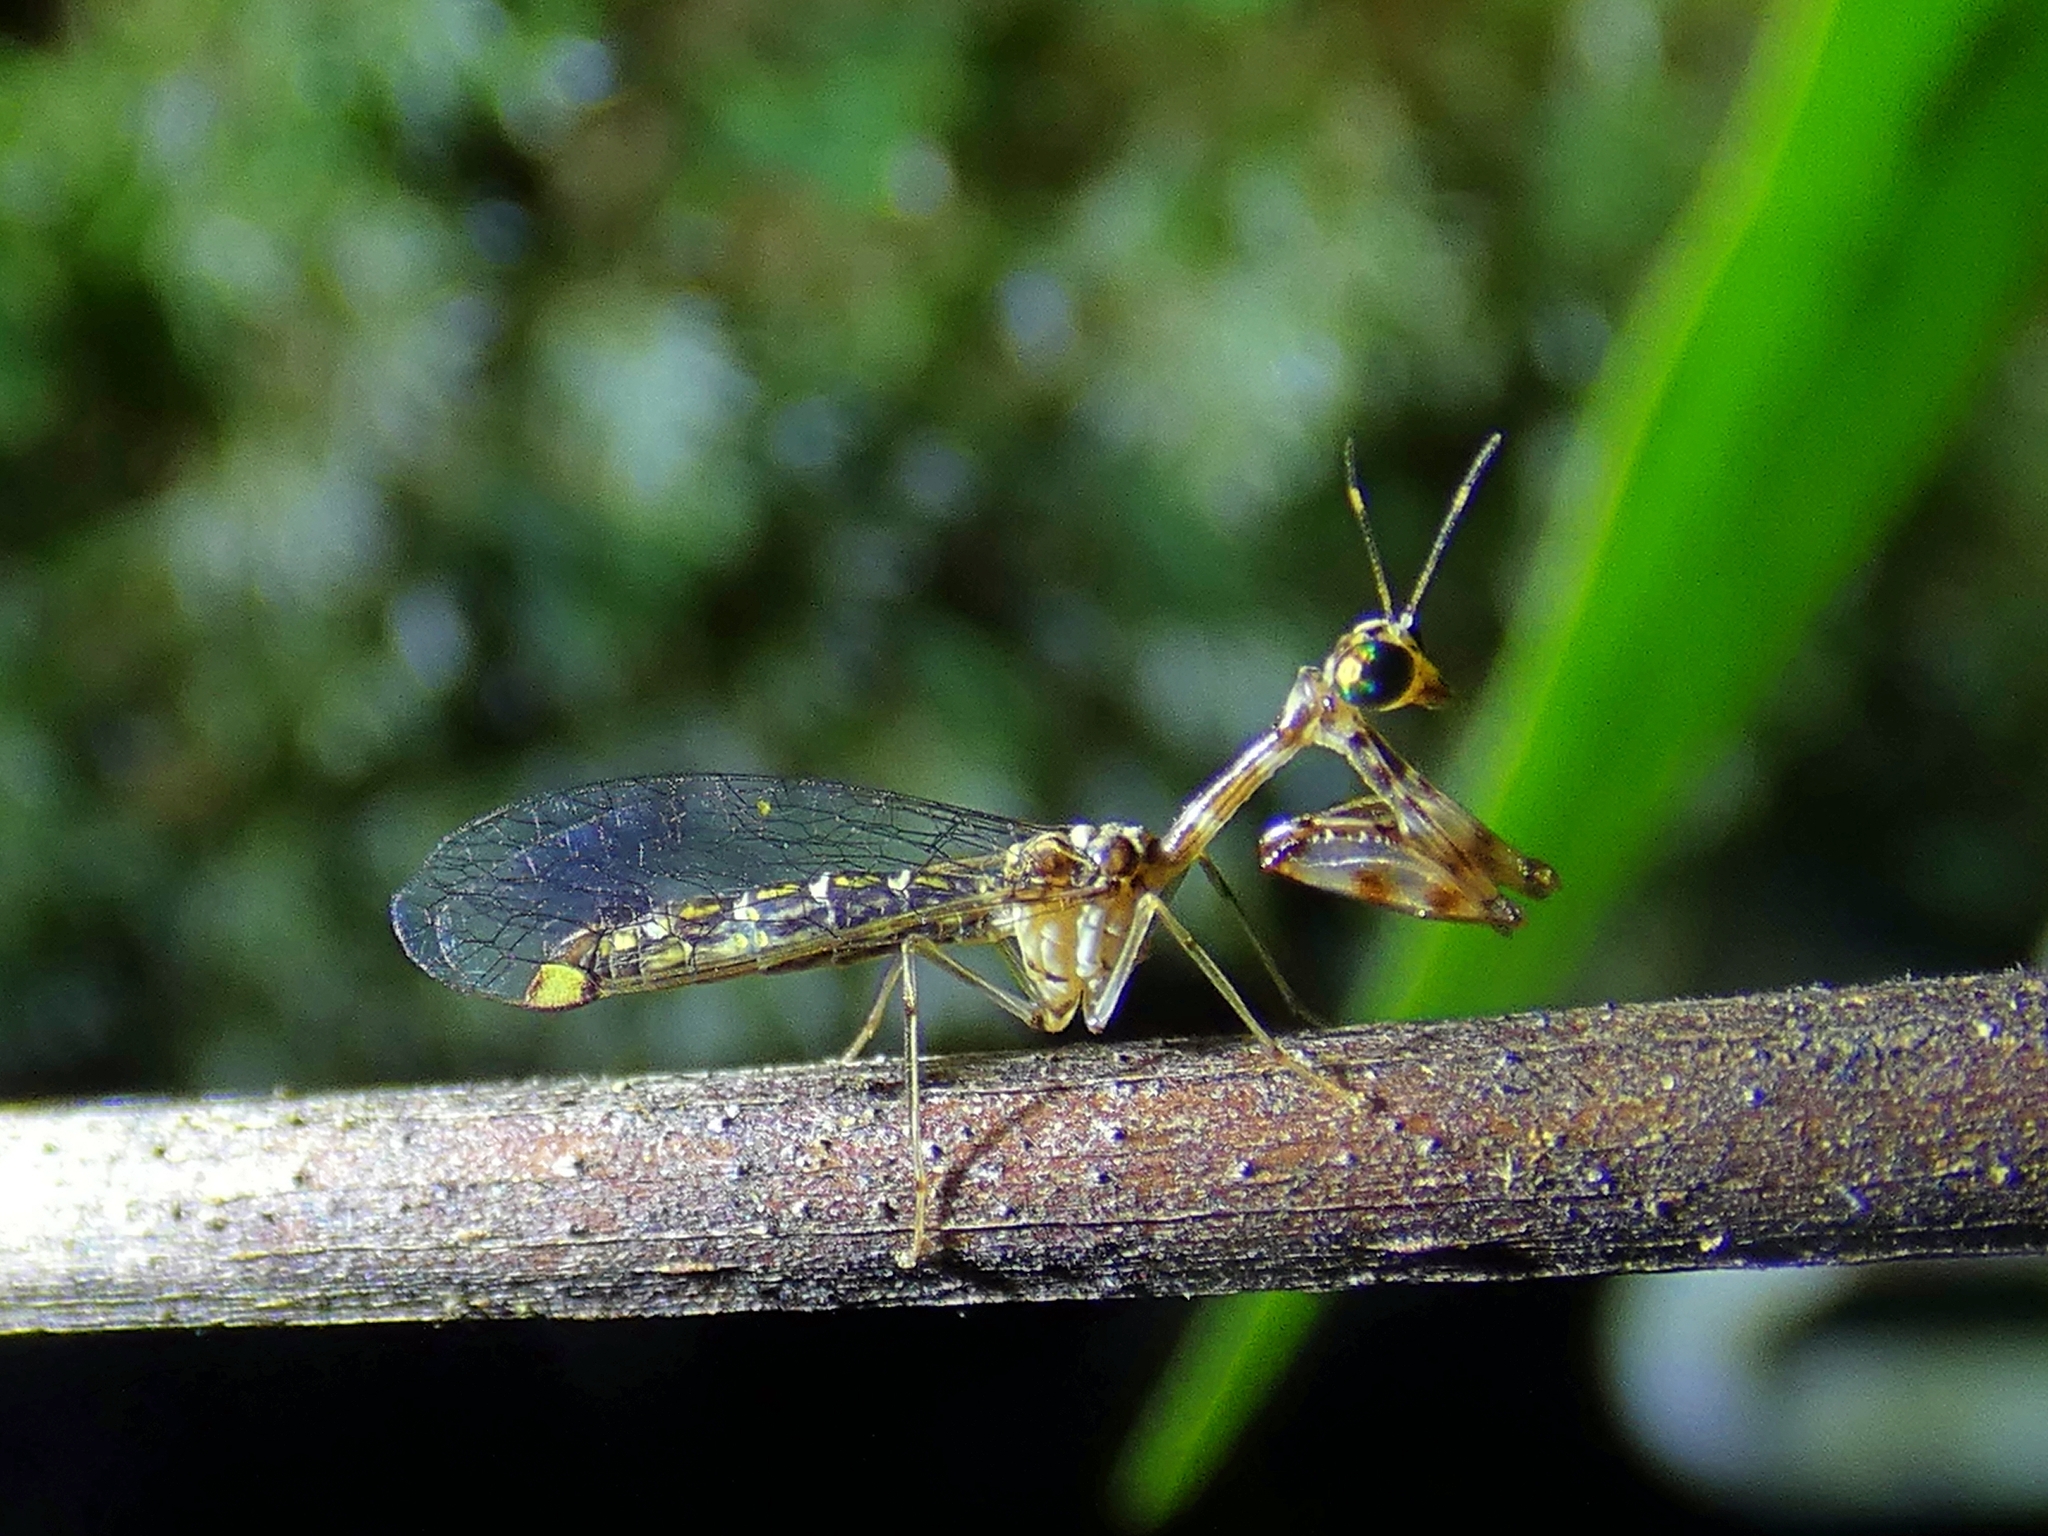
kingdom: Animalia
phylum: Arthropoda
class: Insecta
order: Neuroptera
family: Mantispidae
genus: Xaviera
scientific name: Xaviera manca
